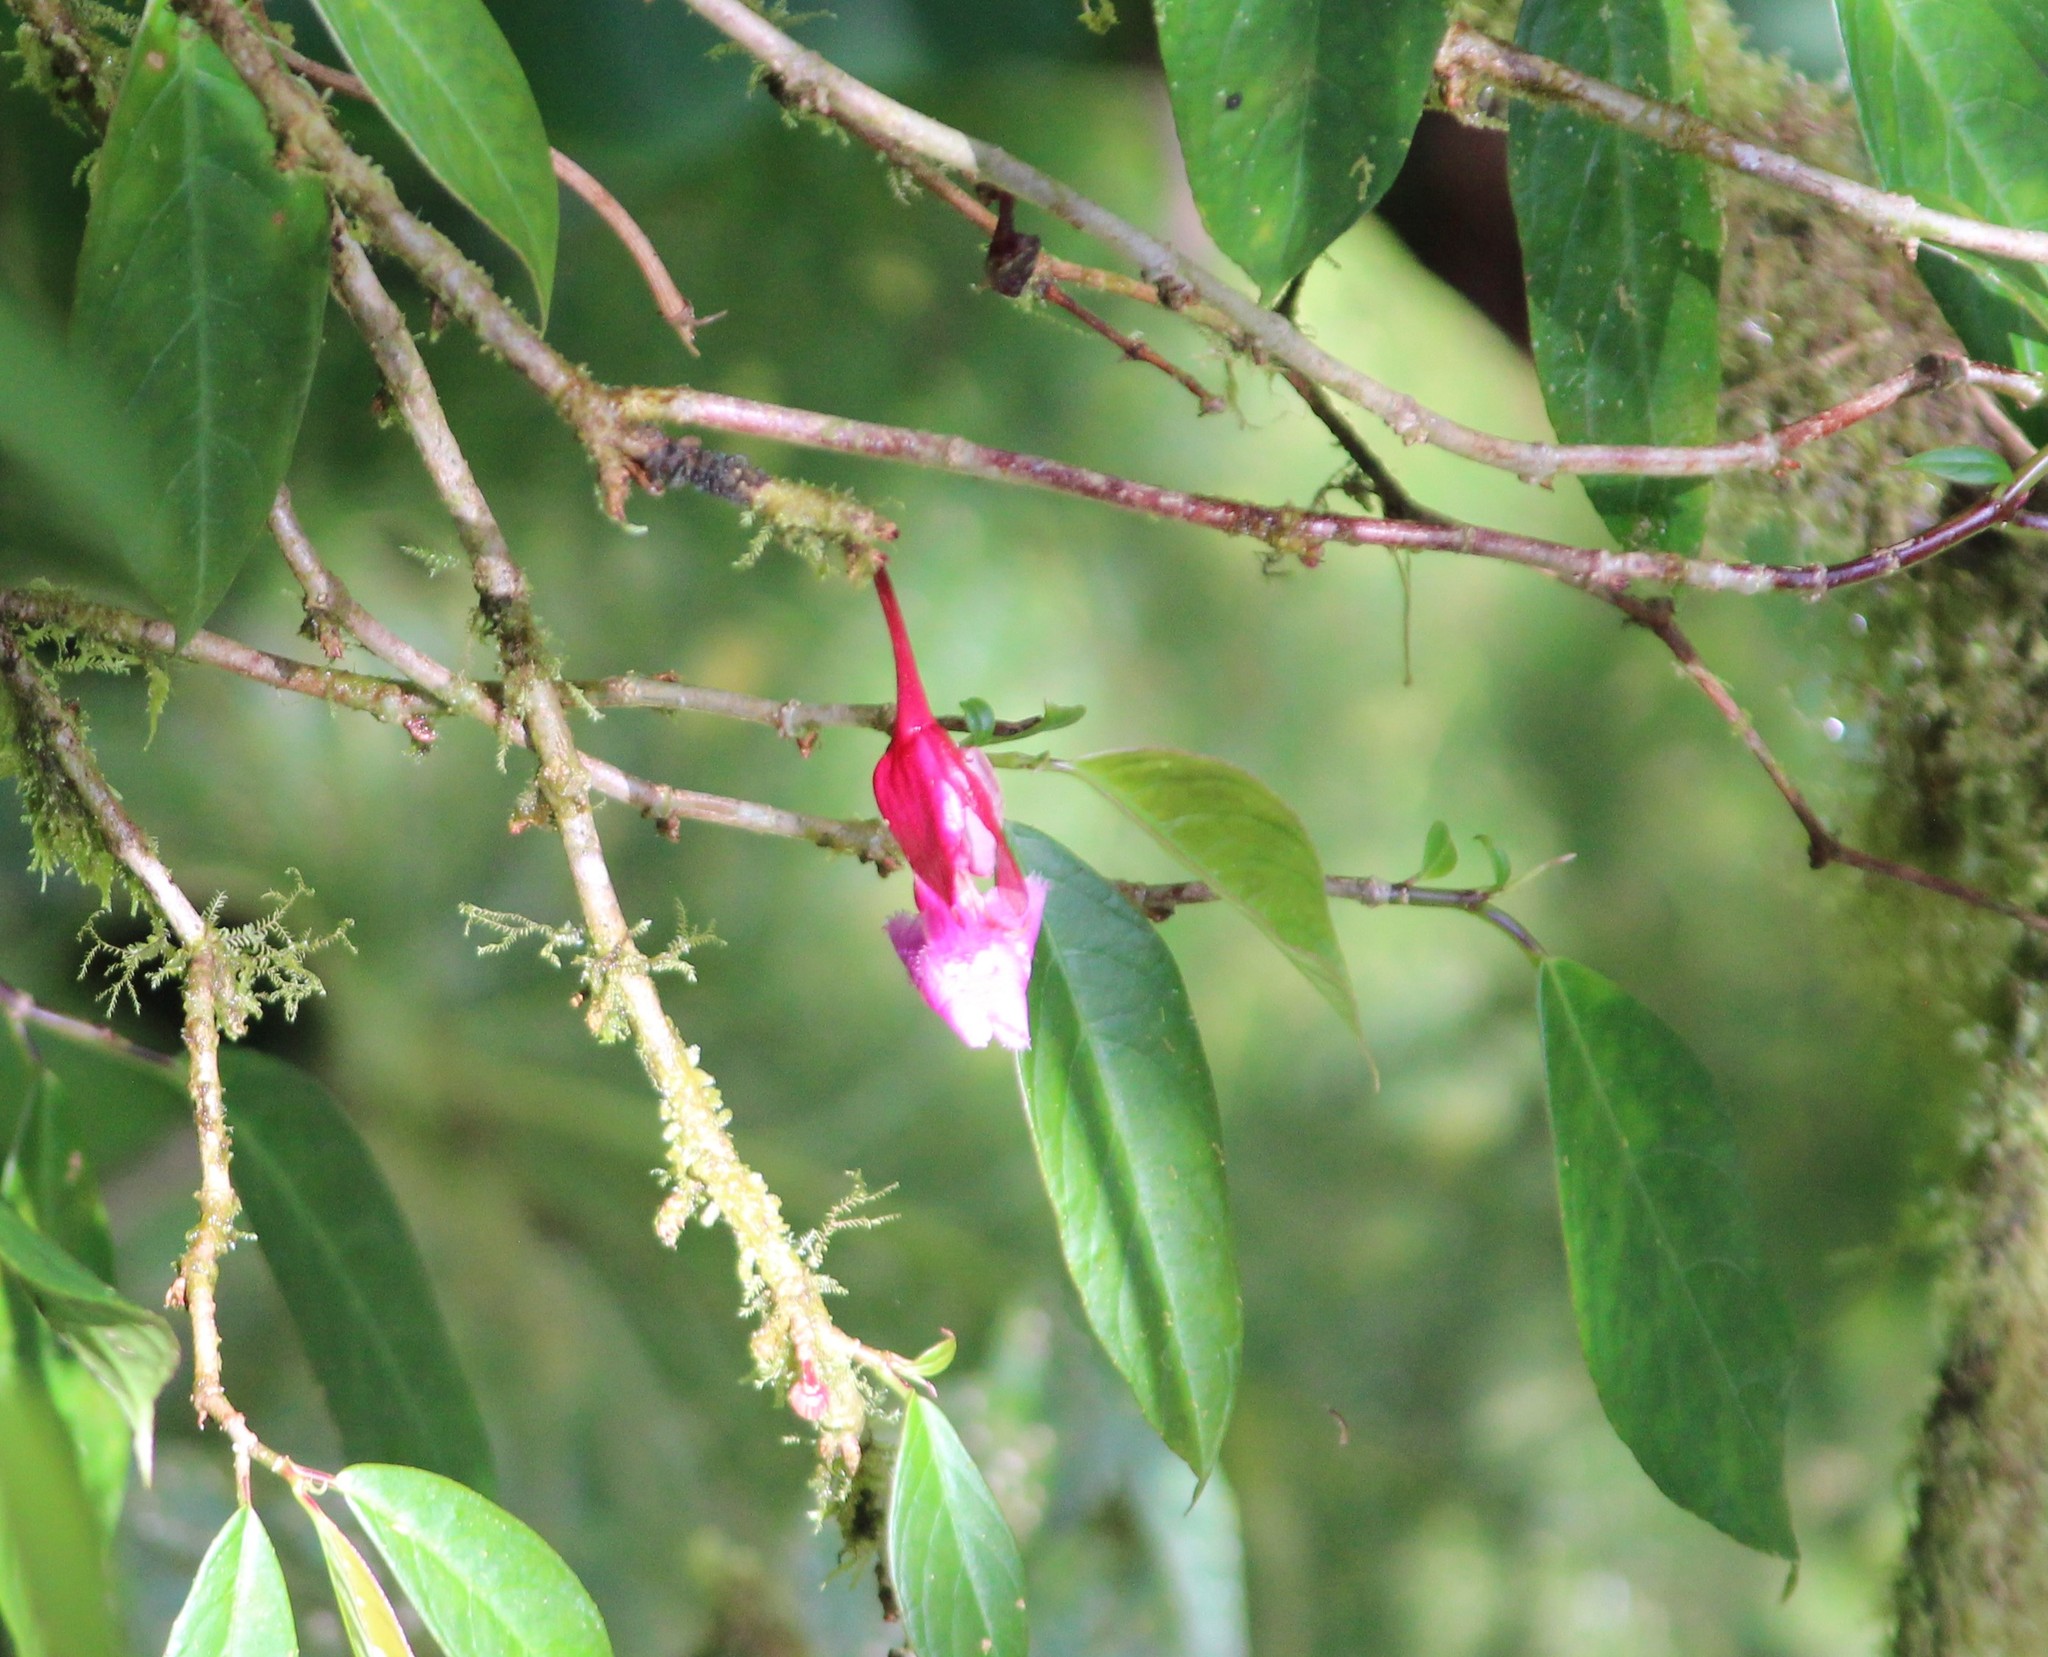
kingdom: Plantae
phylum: Tracheophyta
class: Magnoliopsida
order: Lamiales
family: Gesneriaceae
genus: Drymonia
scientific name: Drymonia conchocalyx
